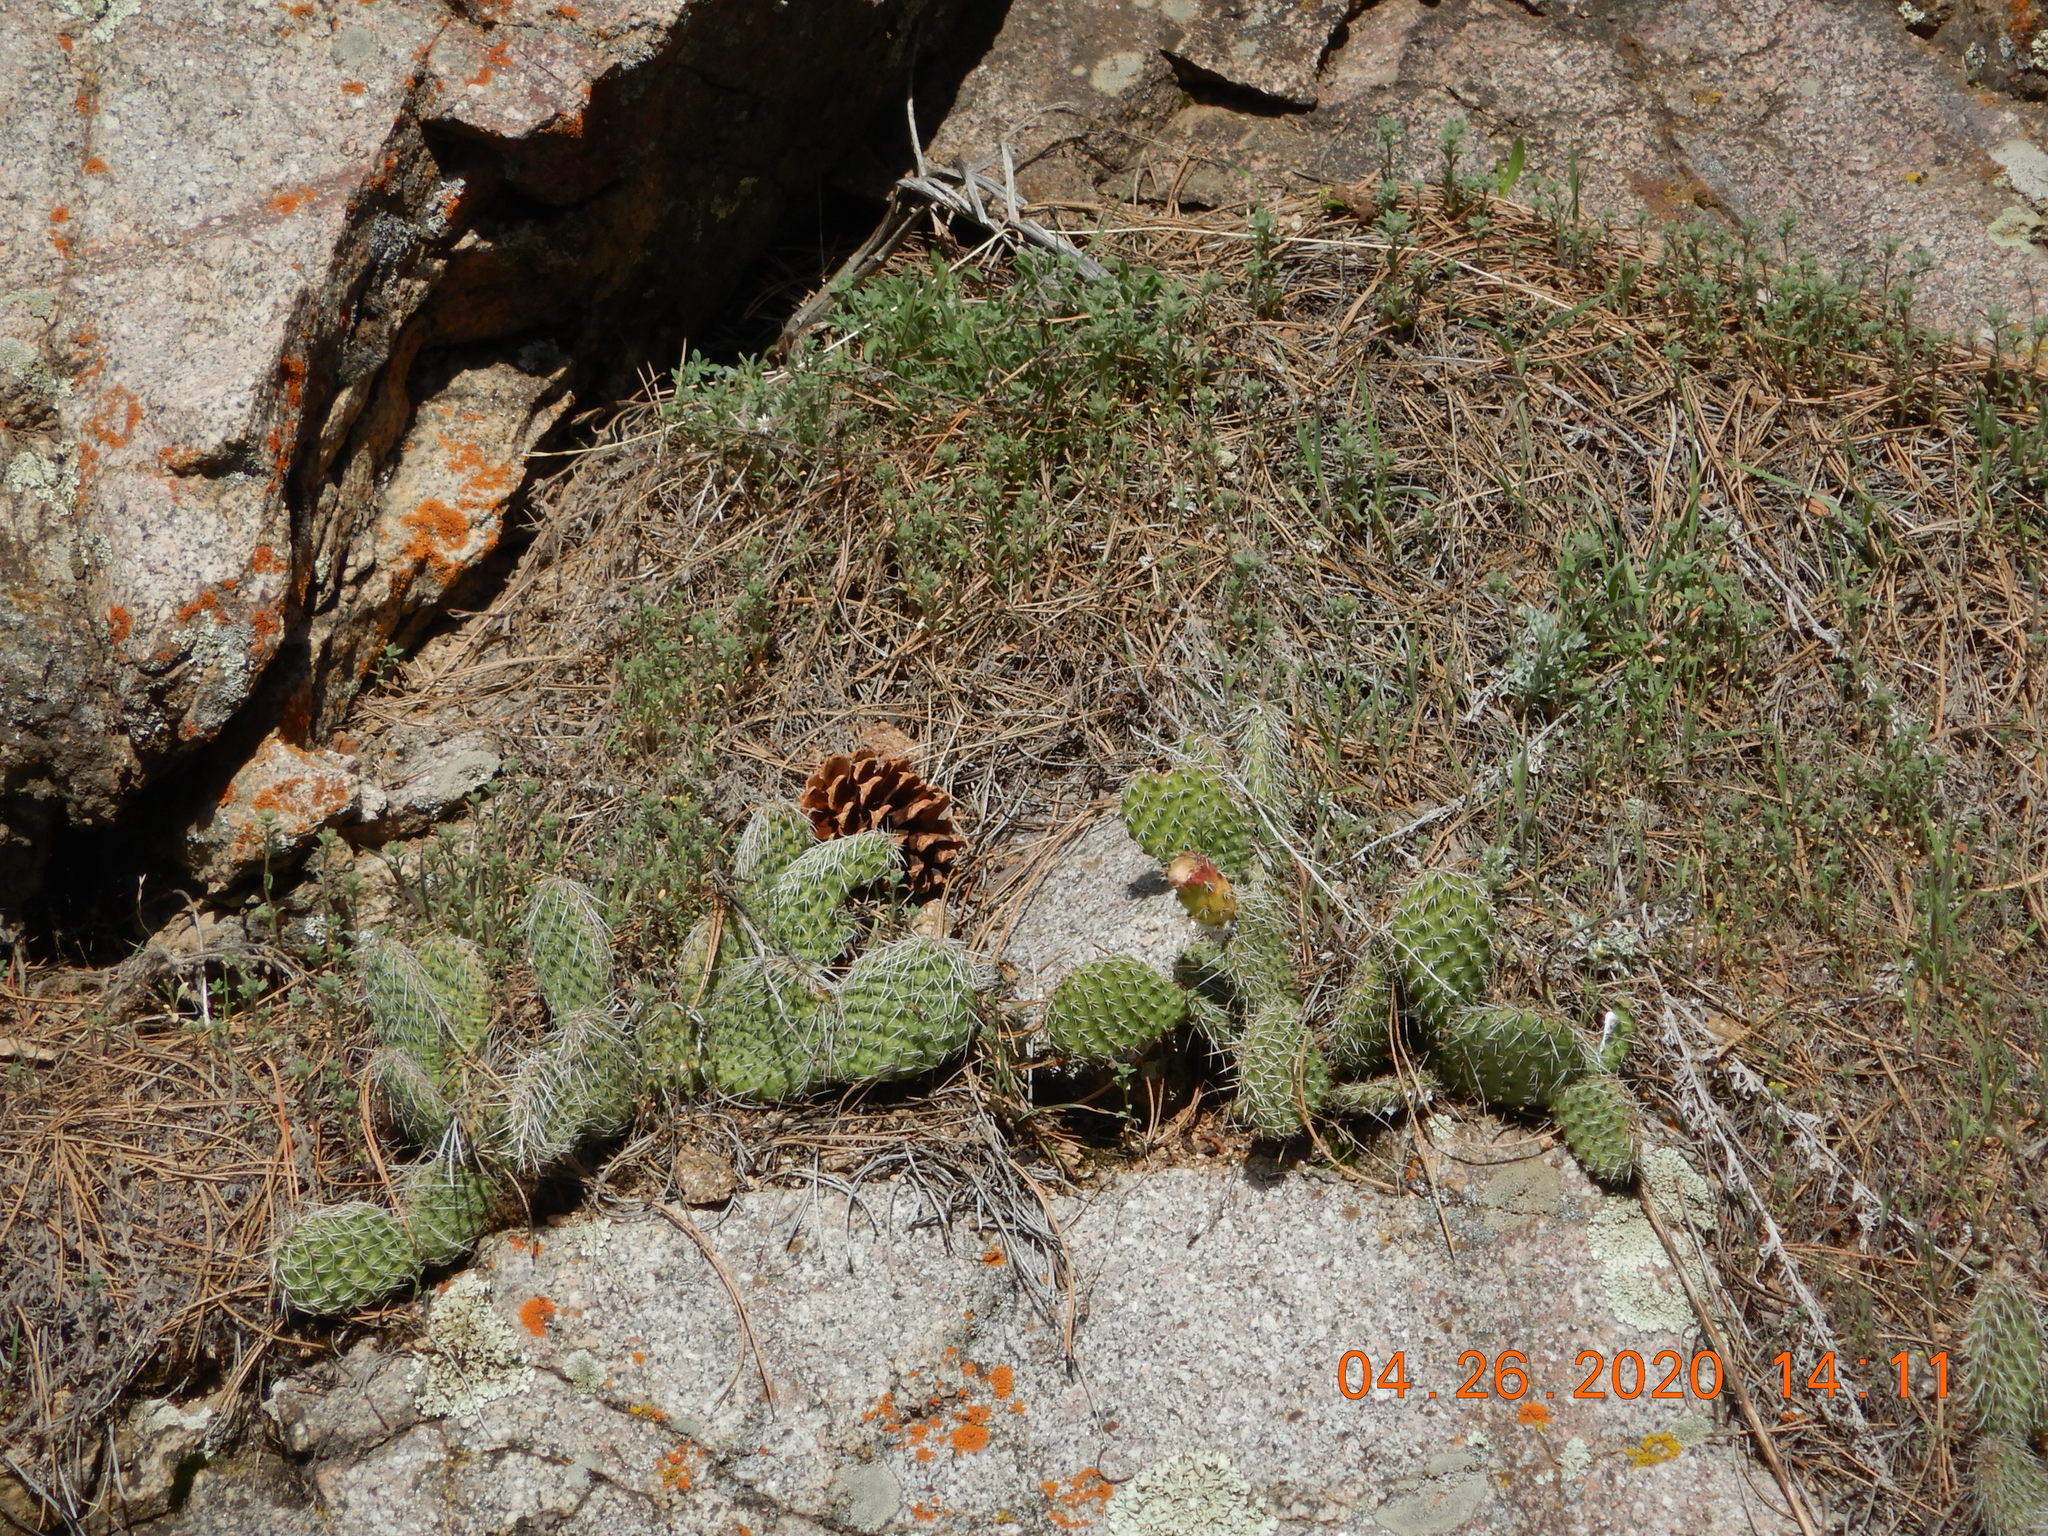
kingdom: Plantae
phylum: Tracheophyta
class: Magnoliopsida
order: Caryophyllales
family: Cactaceae
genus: Opuntia
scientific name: Opuntia polyacantha
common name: Plains prickly-pear
